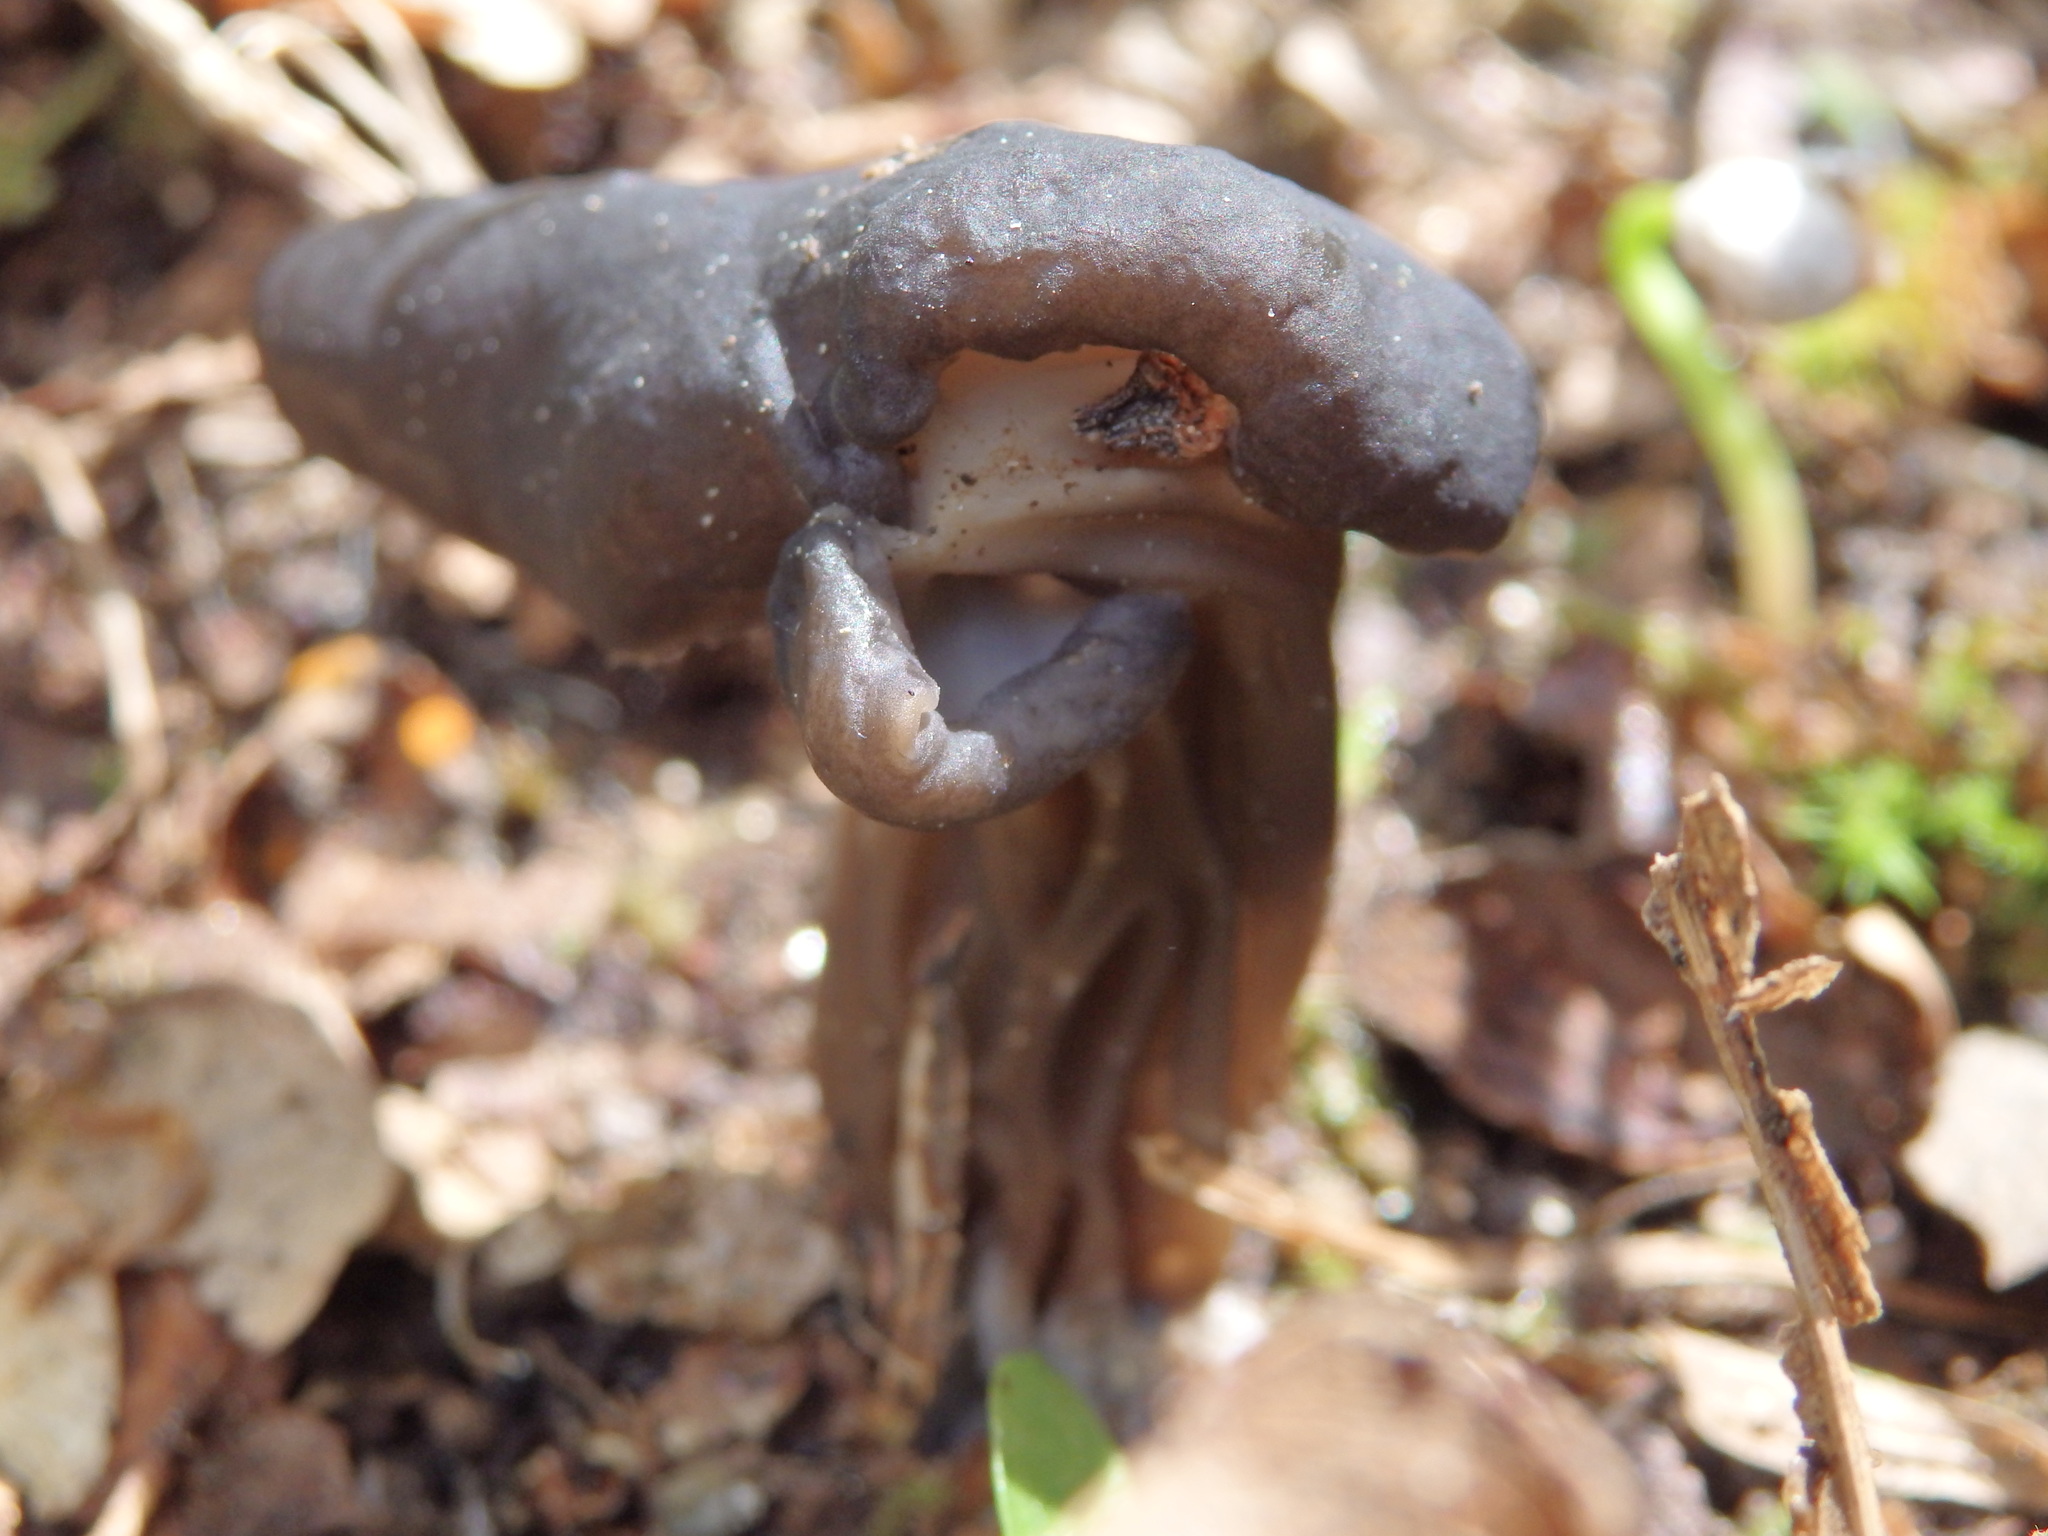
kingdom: Fungi
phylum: Ascomycota
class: Pezizomycetes
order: Pezizales
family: Helvellaceae
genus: Helvella
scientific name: Helvella lacunosa
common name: Elfin saddle
